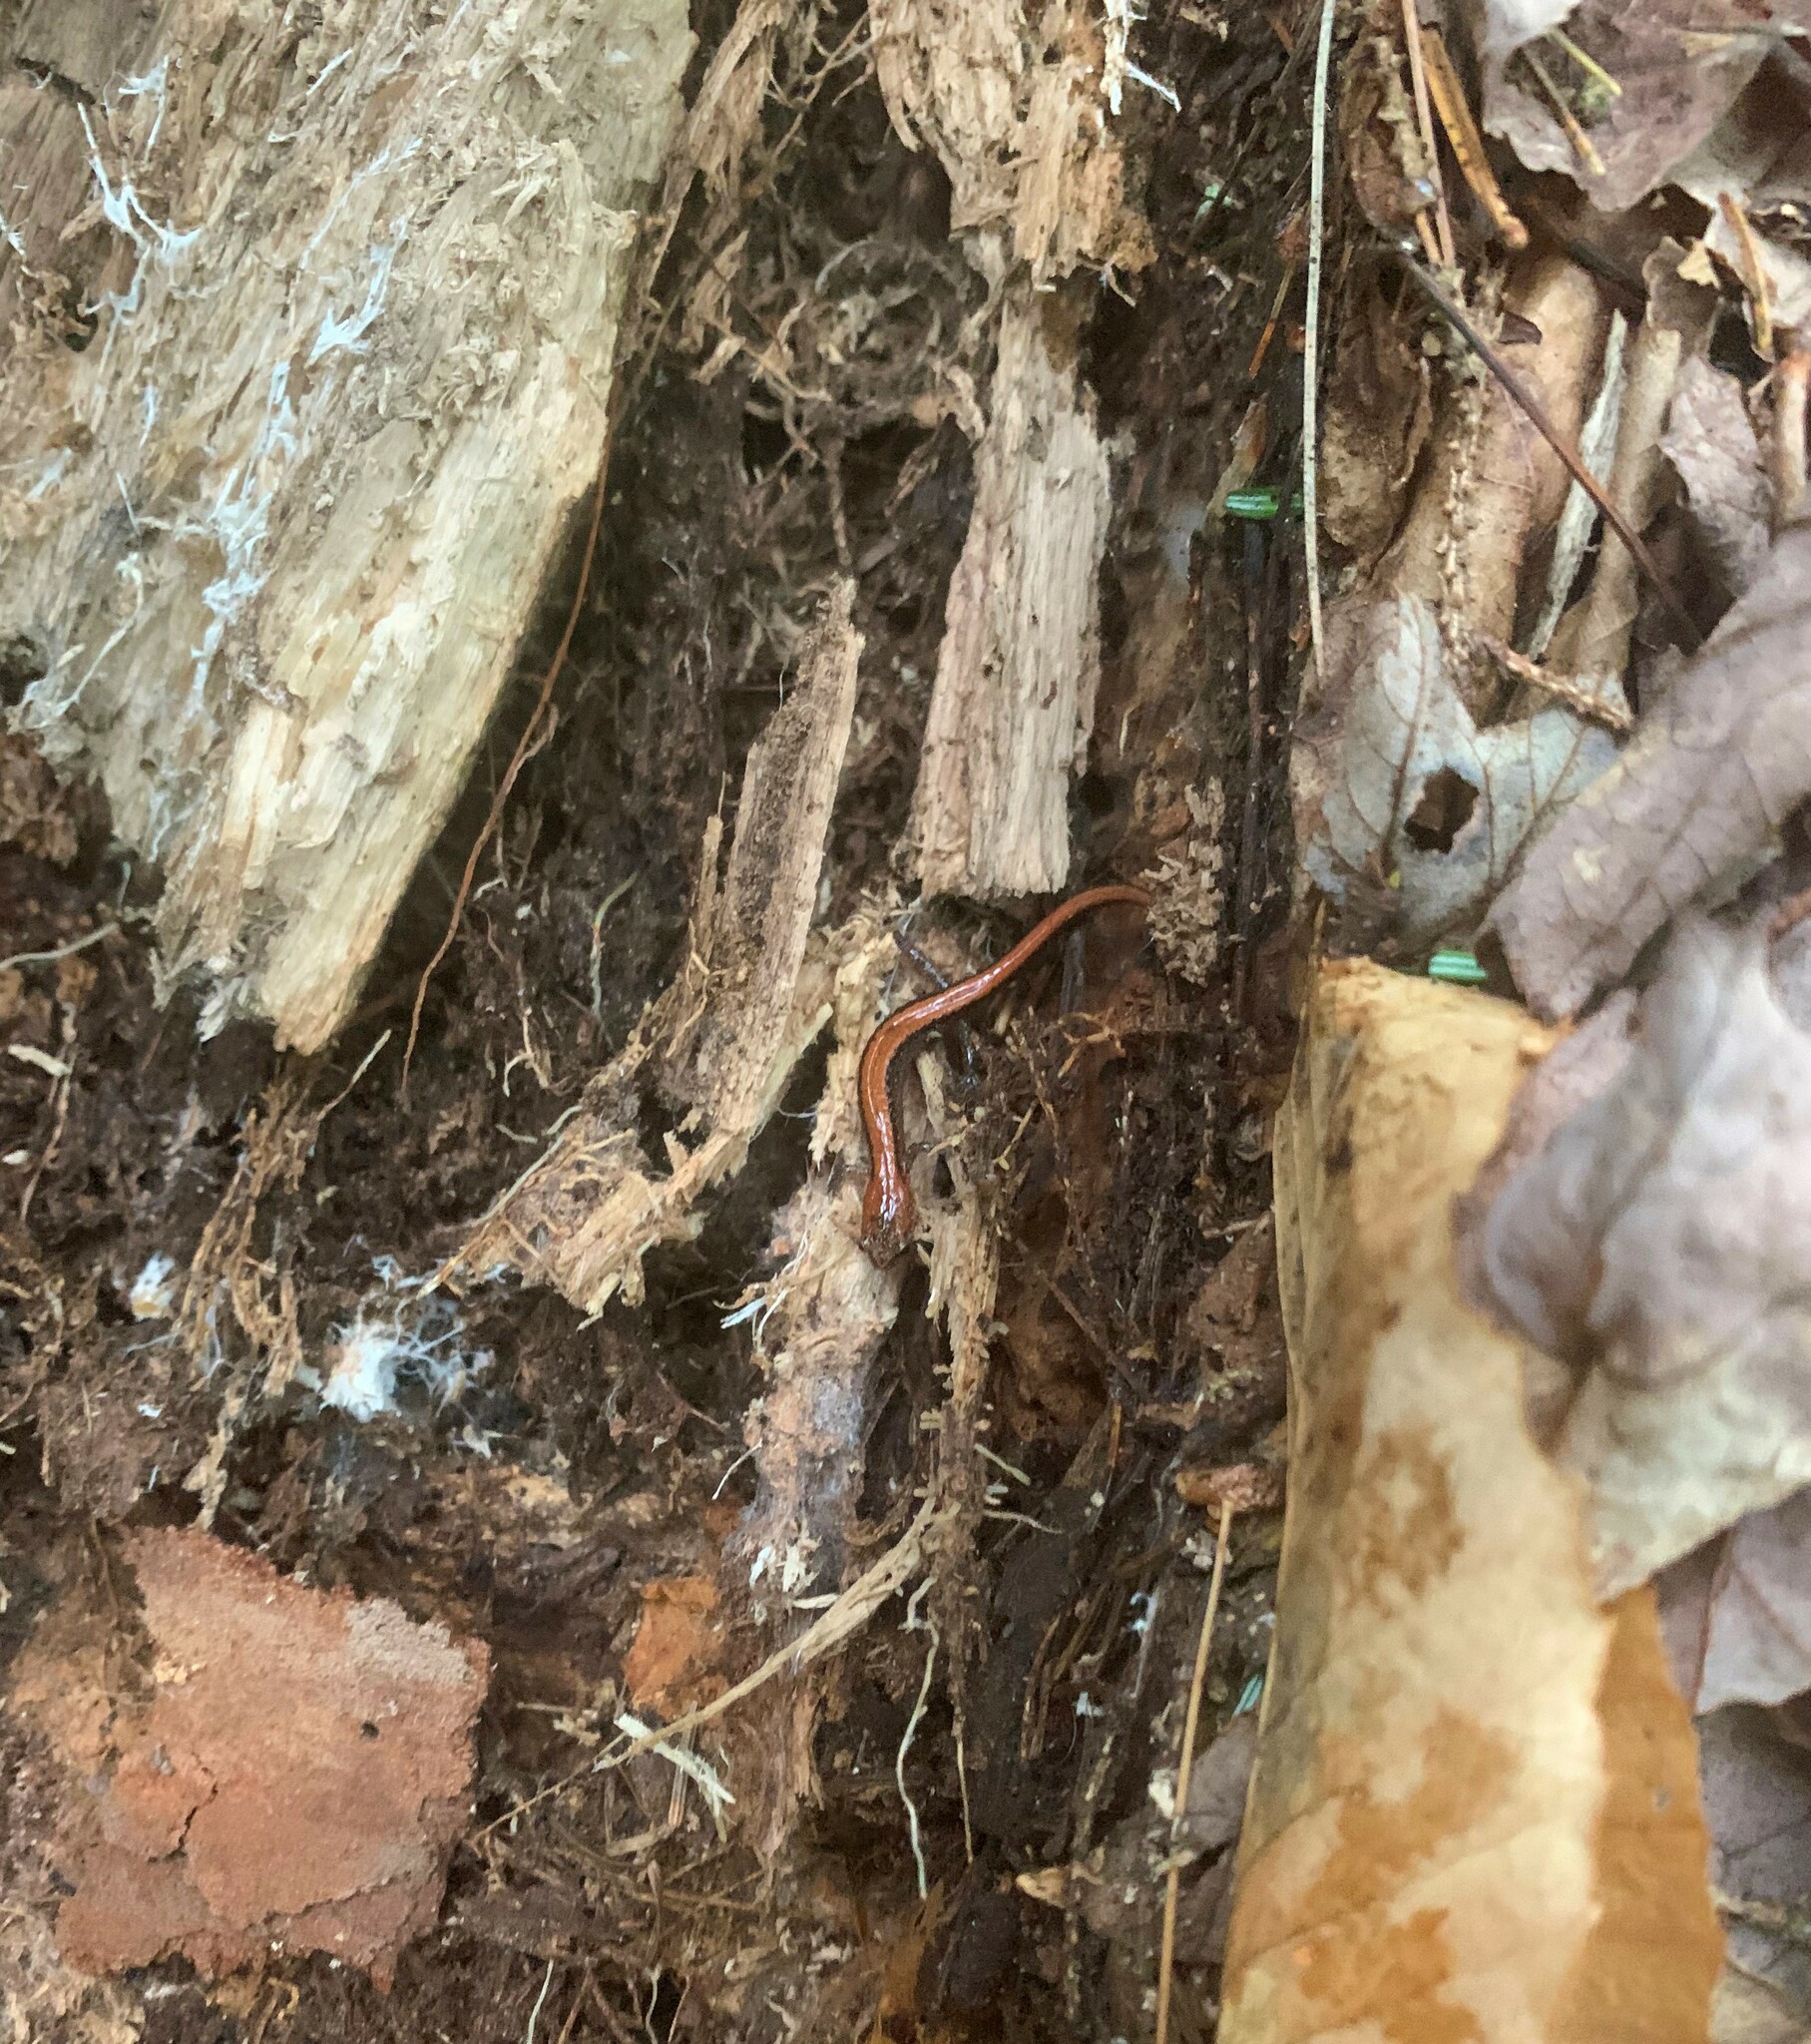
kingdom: Animalia
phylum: Chordata
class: Amphibia
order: Caudata
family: Plethodontidae
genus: Plethodon
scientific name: Plethodon cinereus
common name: Redback salamander
